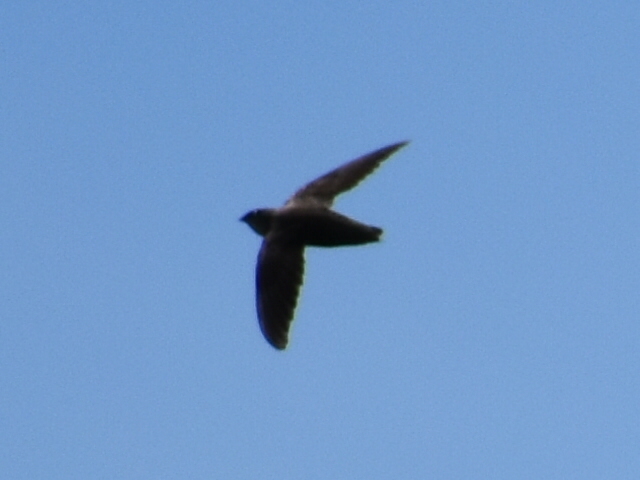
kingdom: Animalia
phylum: Chordata
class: Aves
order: Apodiformes
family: Apodidae
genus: Chaetura
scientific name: Chaetura pelagica
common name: Chimney swift
